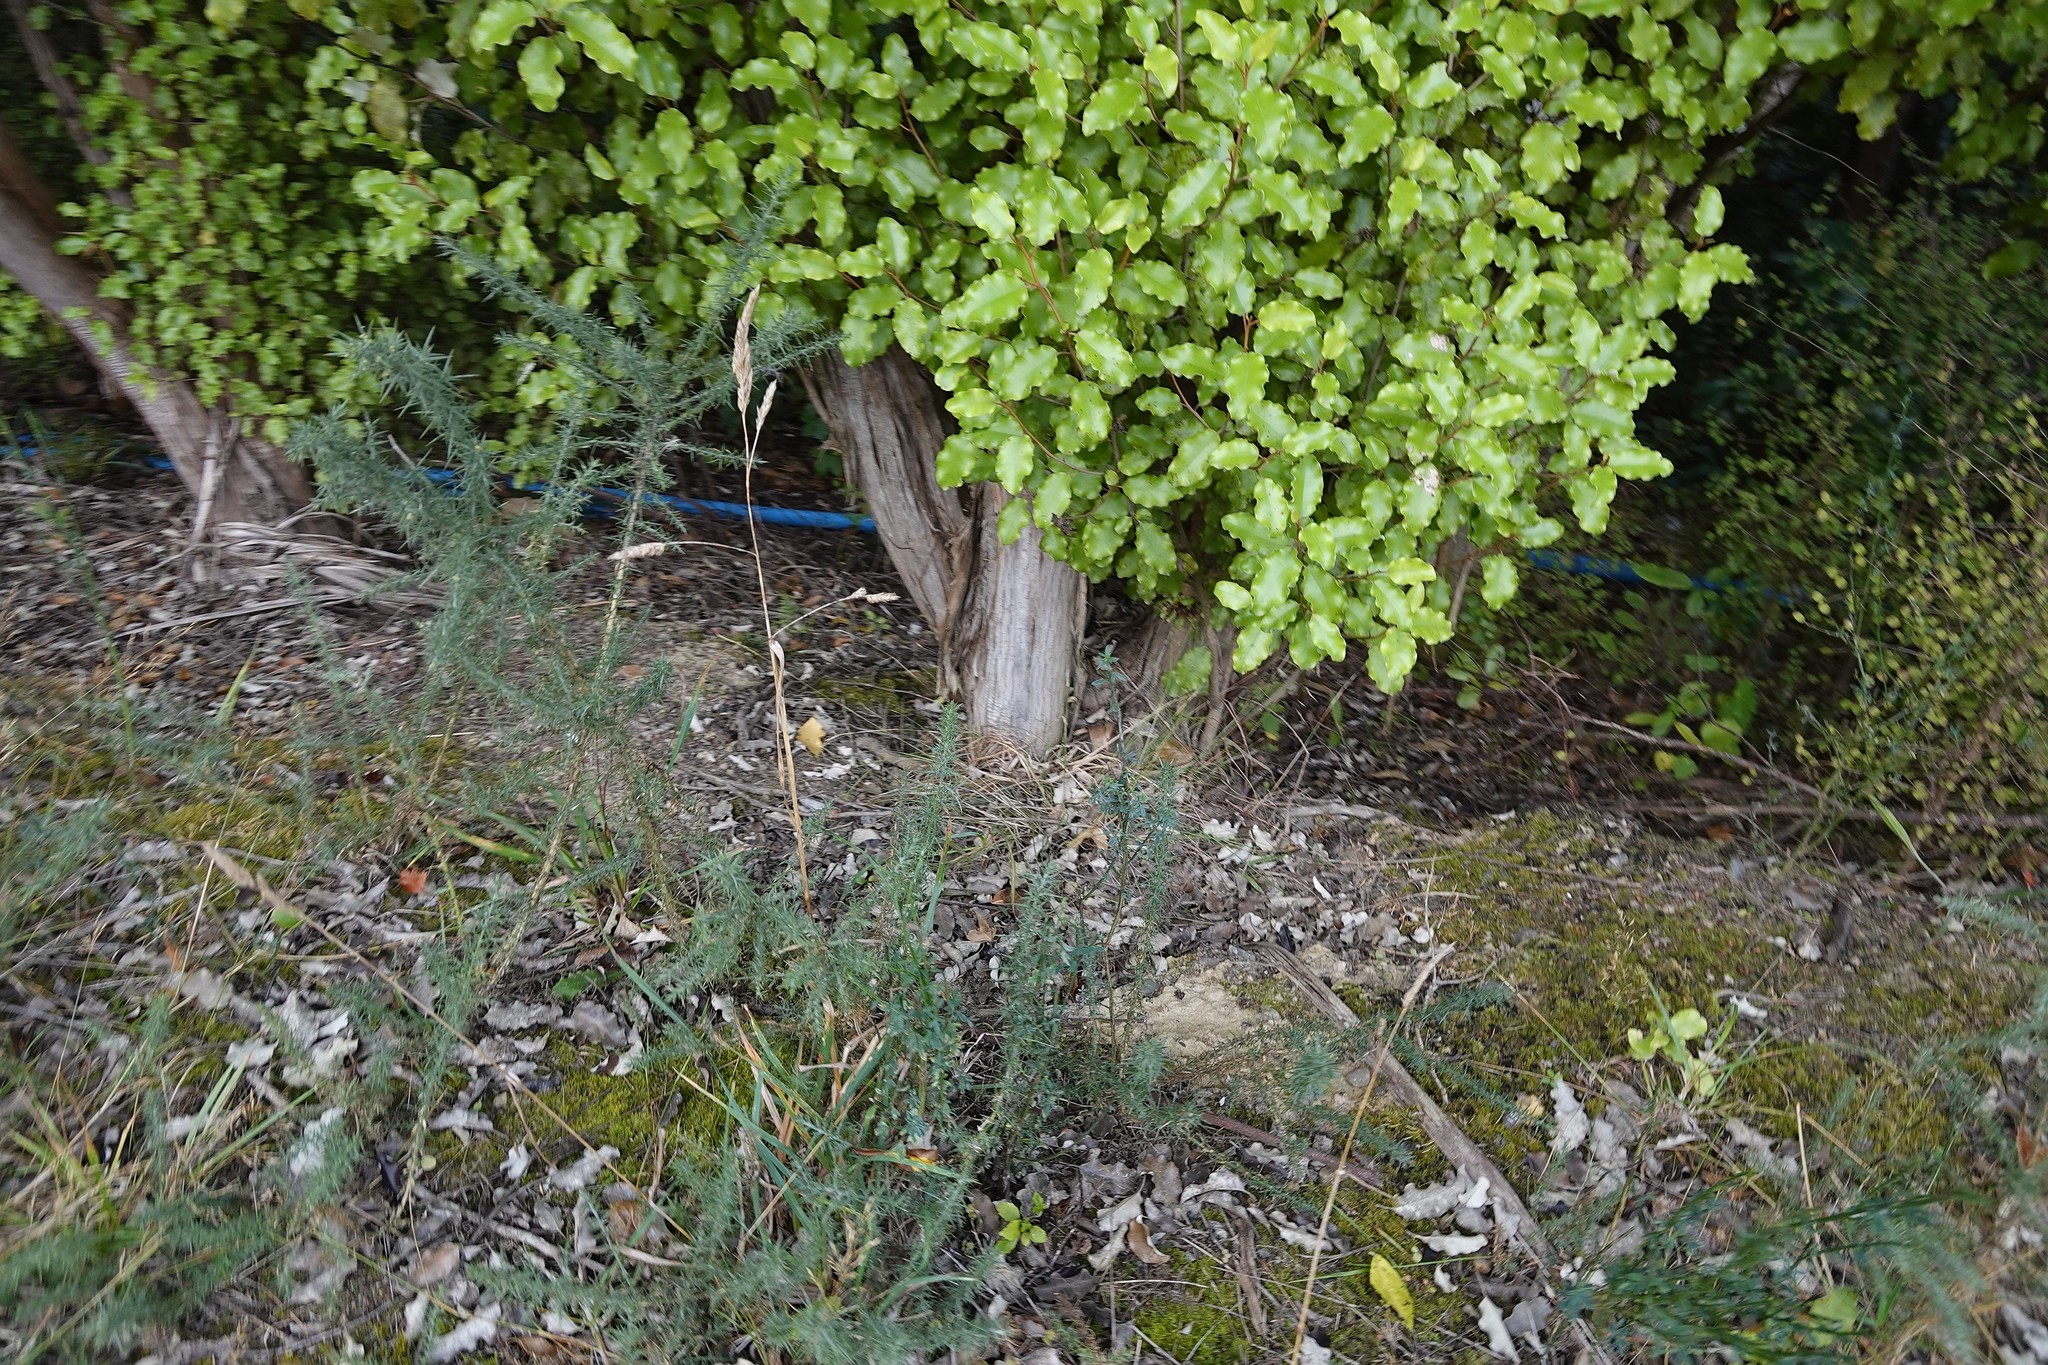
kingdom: Plantae
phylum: Tracheophyta
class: Magnoliopsida
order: Fabales
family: Fabaceae
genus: Ulex
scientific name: Ulex europaeus
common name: Common gorse
